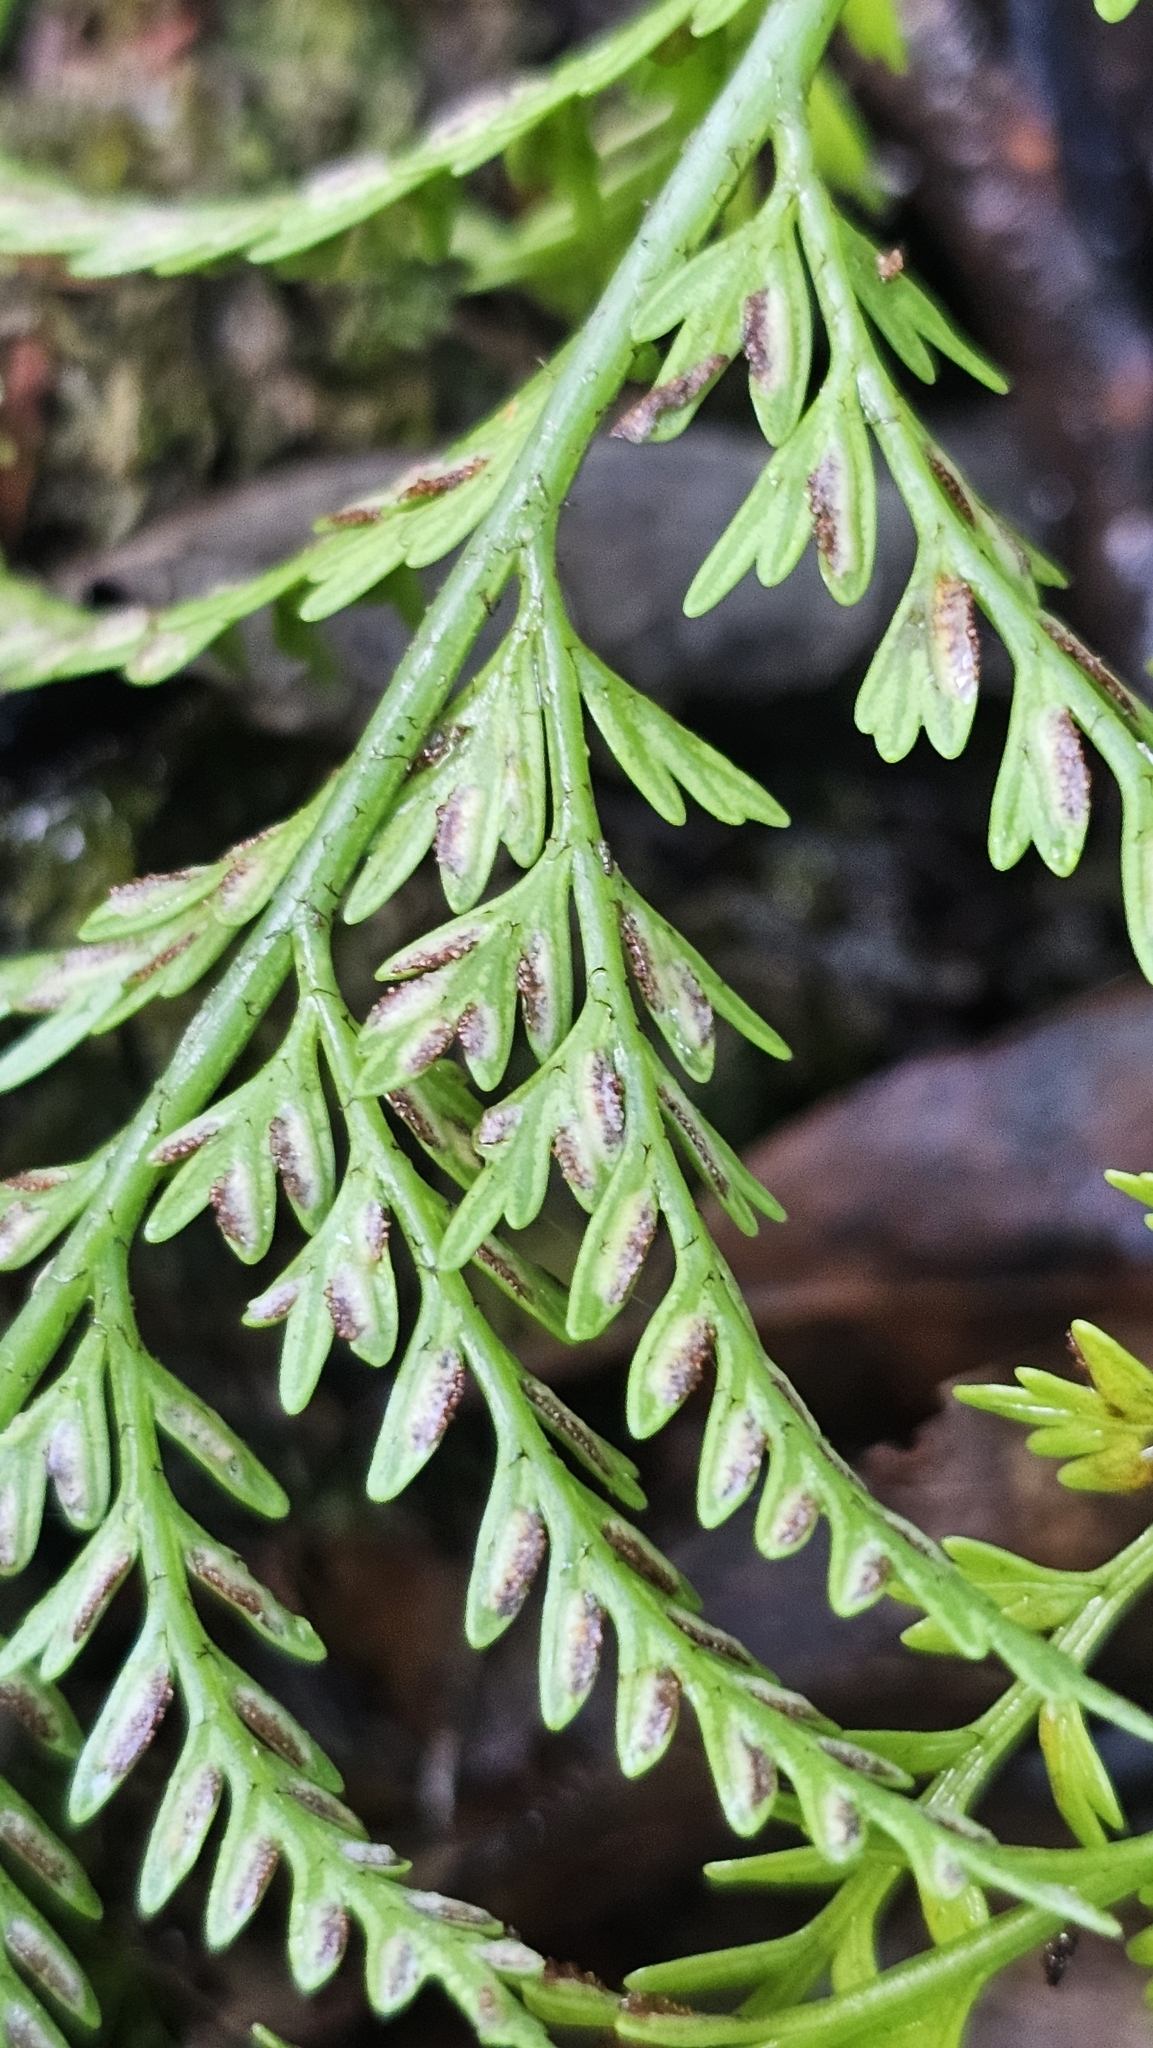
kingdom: Plantae
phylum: Tracheophyta
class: Polypodiopsida
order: Polypodiales
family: Aspleniaceae
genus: Asplenium
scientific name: Asplenium appendiculatum
